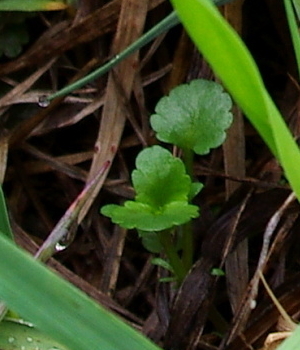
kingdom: Plantae
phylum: Tracheophyta
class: Magnoliopsida
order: Saxifragales
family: Saxifragaceae
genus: Chrysosplenium
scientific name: Chrysosplenium alternifolium
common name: Alternate-leaved golden-saxifrage
